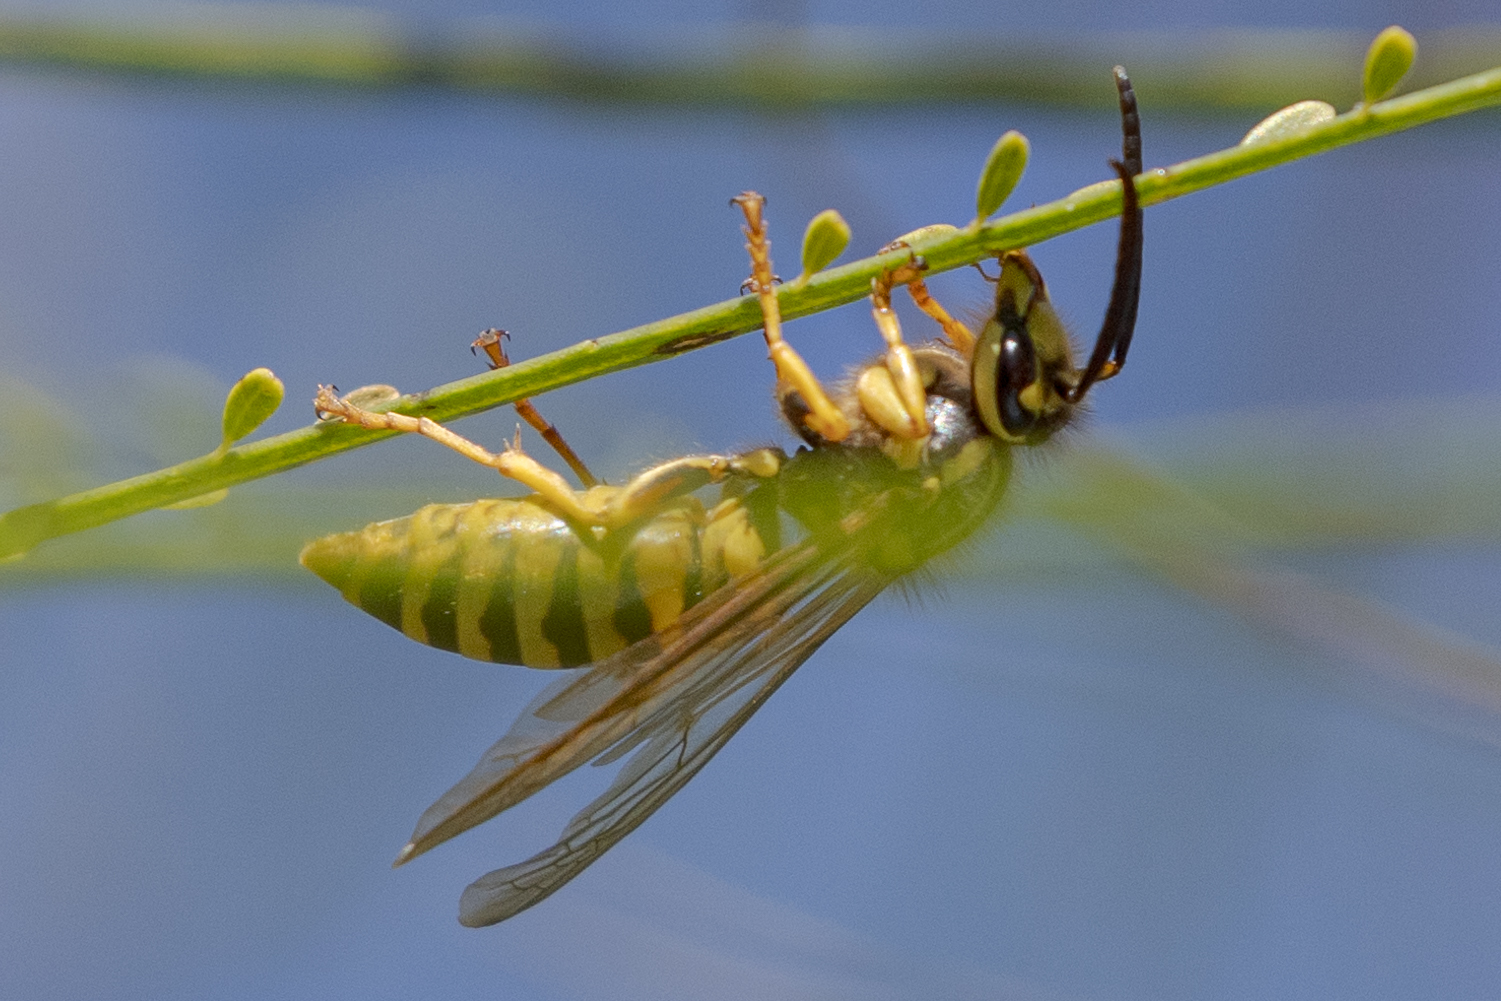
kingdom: Animalia
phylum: Arthropoda
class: Insecta
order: Hymenoptera
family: Vespidae
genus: Vespula
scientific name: Vespula squamosa
